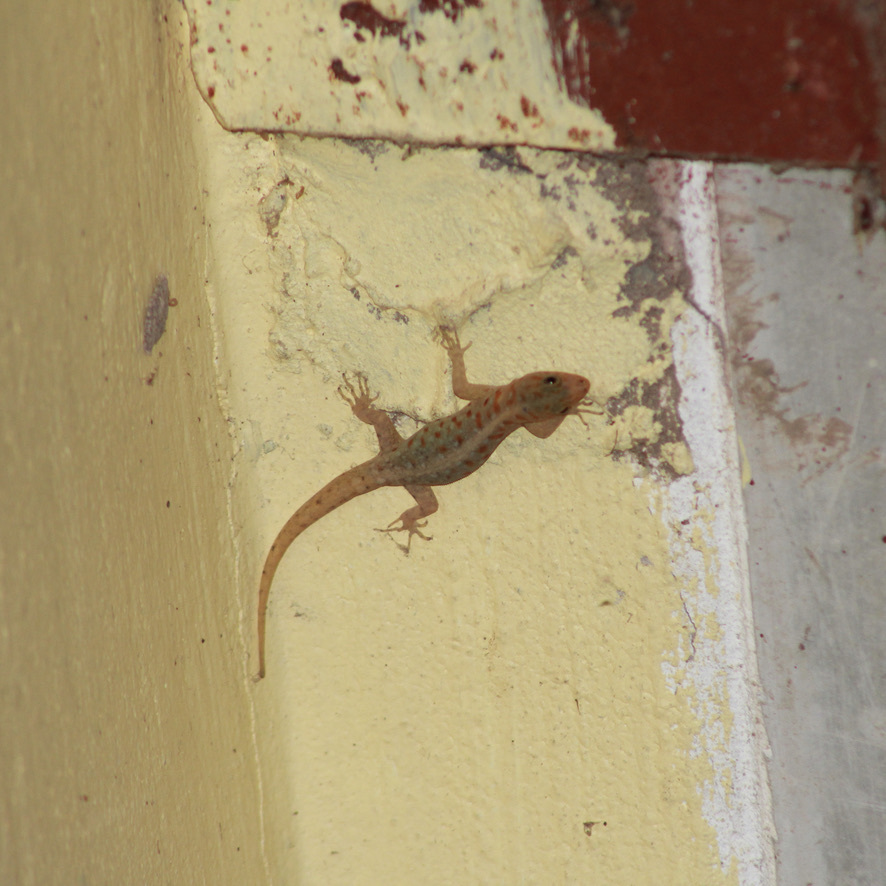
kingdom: Animalia
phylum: Chordata
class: Squamata
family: Sphaerodactylidae
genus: Gonatodes
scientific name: Gonatodes vittatus
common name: Wiegmann's striped gecko
